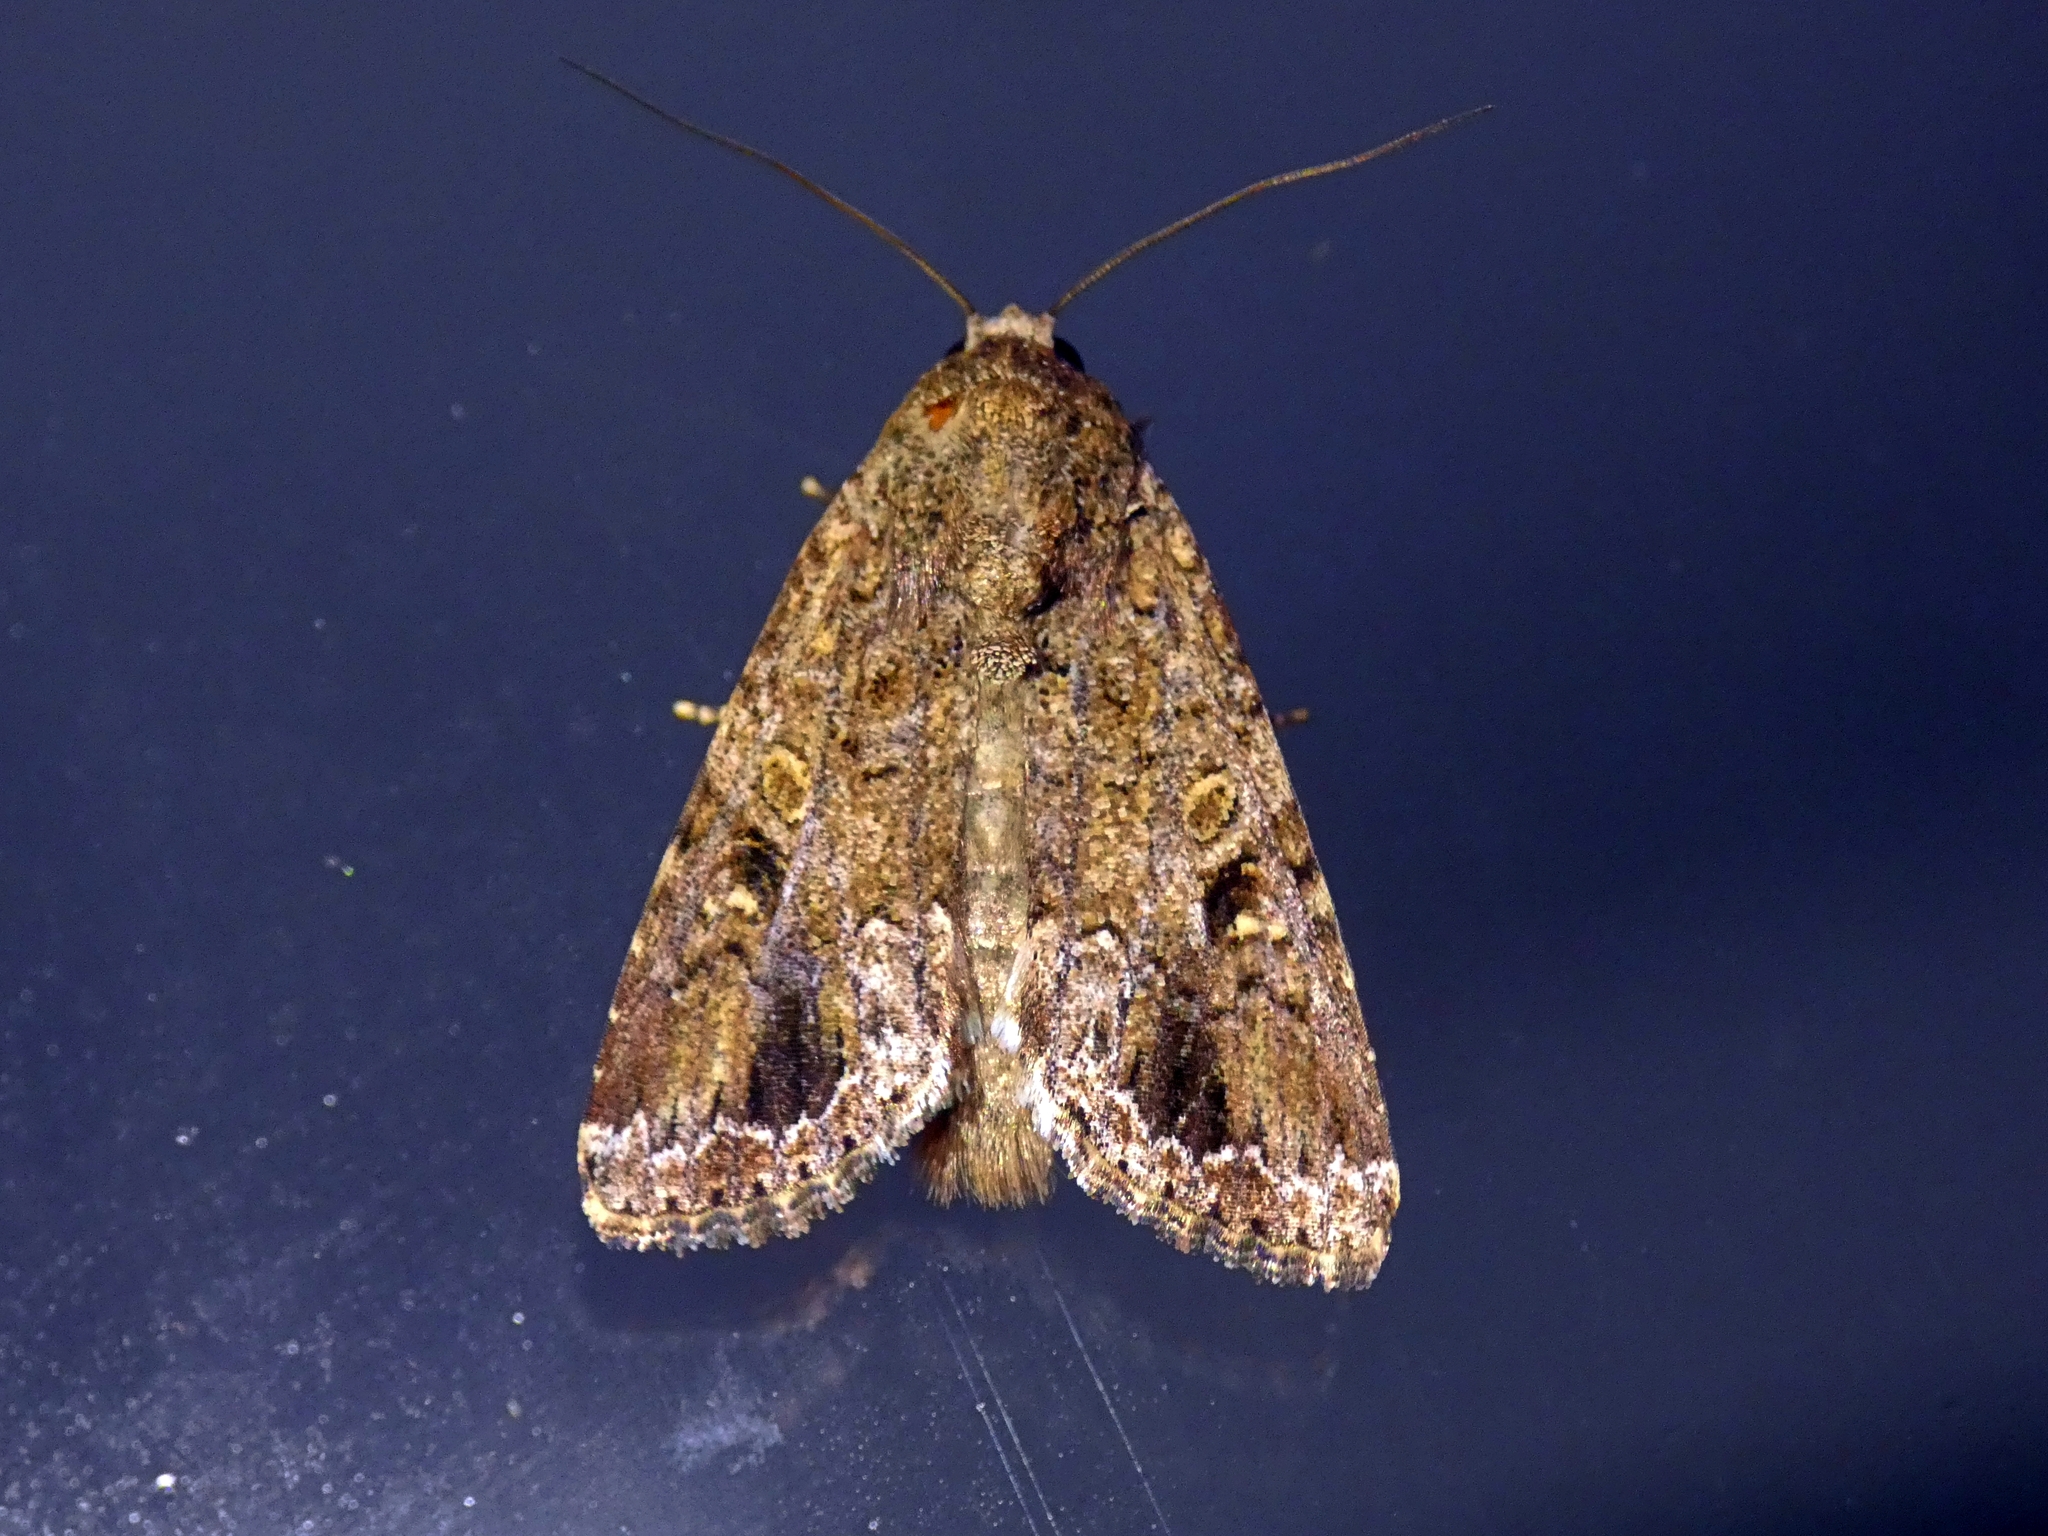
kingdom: Animalia
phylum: Arthropoda
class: Insecta
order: Lepidoptera
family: Noctuidae
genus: Spodoptera
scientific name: Spodoptera mauritia
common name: Lawn armyworm
